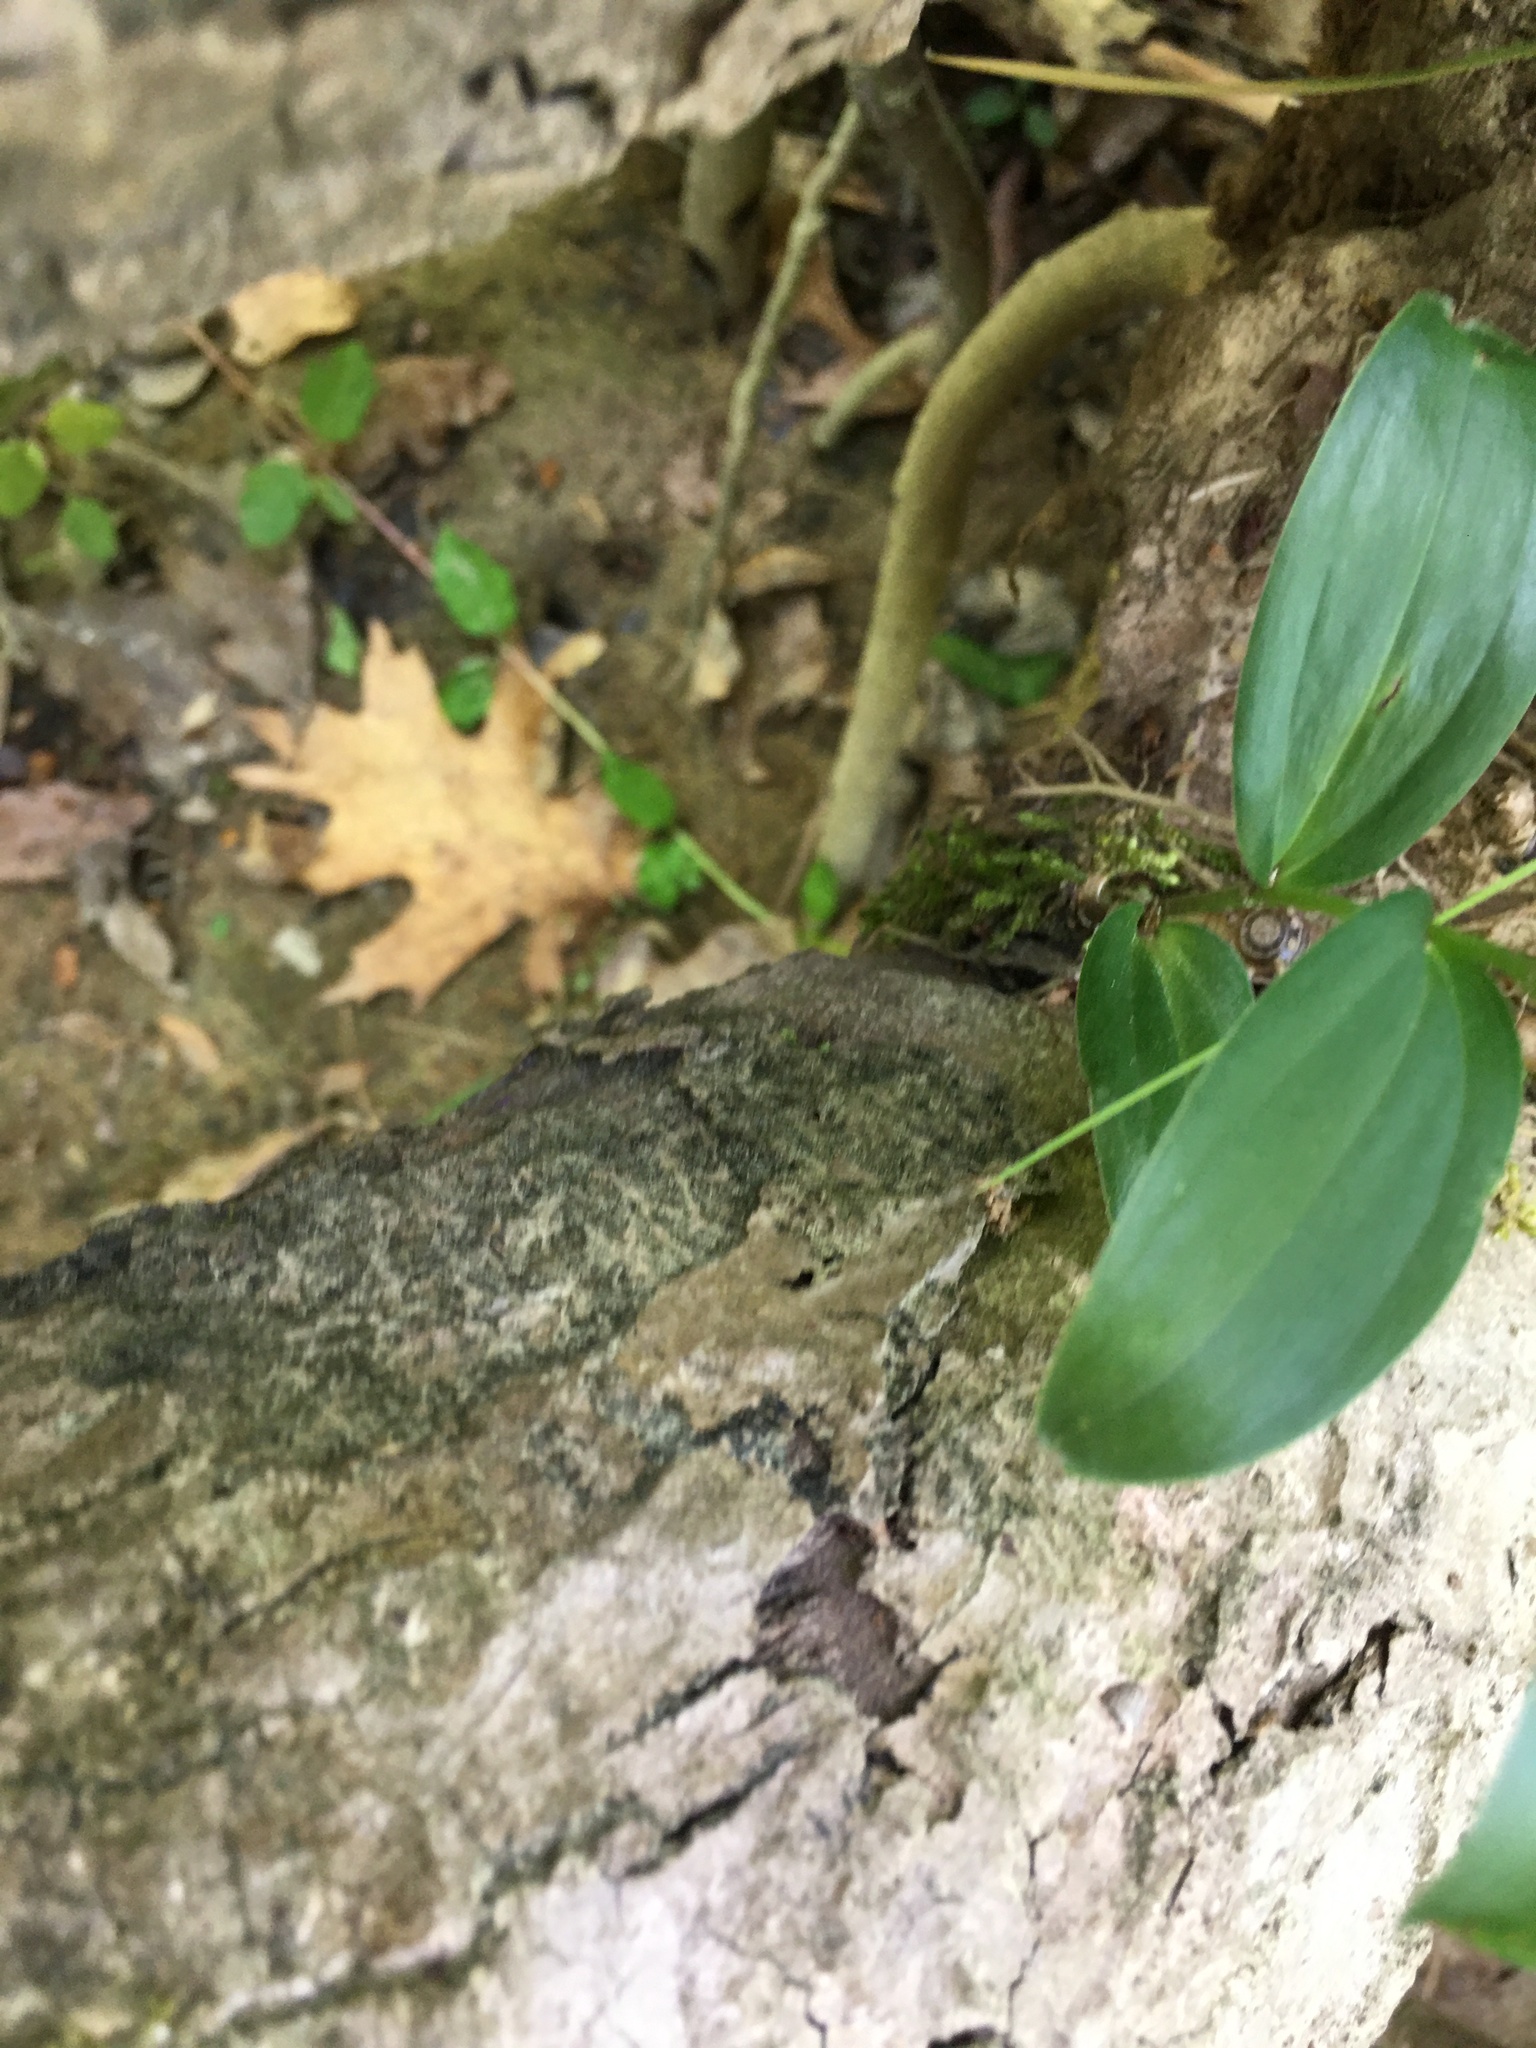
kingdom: Plantae
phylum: Tracheophyta
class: Liliopsida
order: Asparagales
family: Asparagaceae
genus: Maianthemum
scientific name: Maianthemum racemosum
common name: False spikenard
